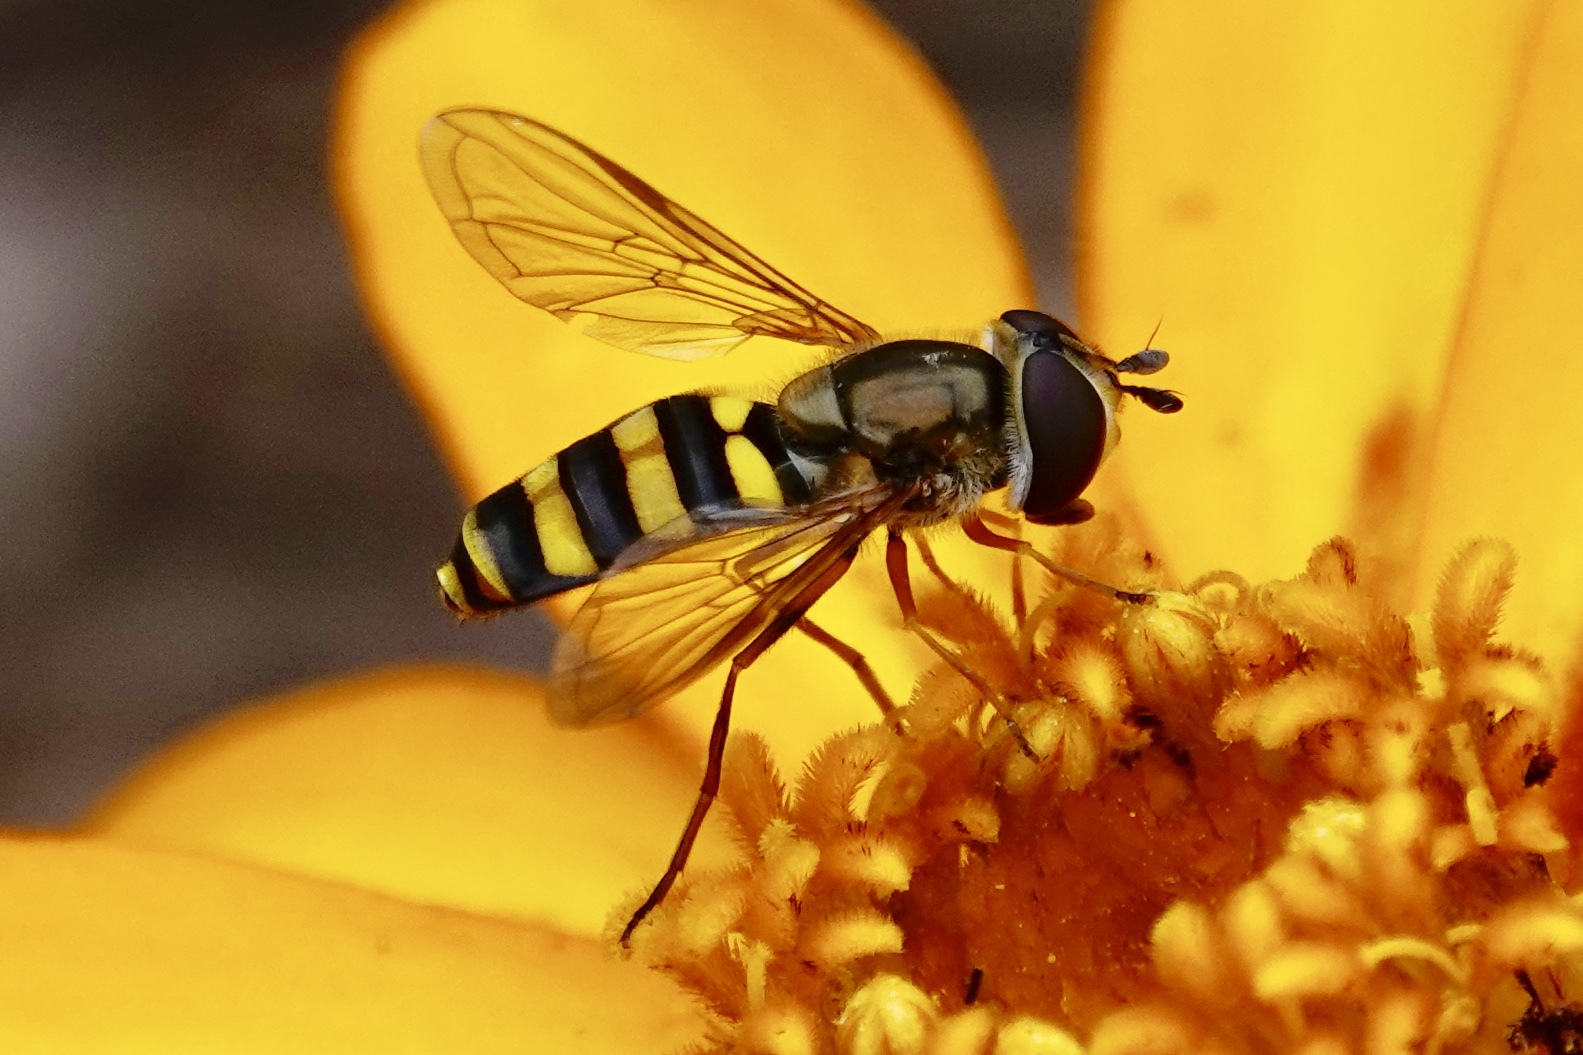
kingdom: Animalia
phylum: Arthropoda
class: Insecta
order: Diptera
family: Syrphidae
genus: Eupeodes
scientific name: Eupeodes
